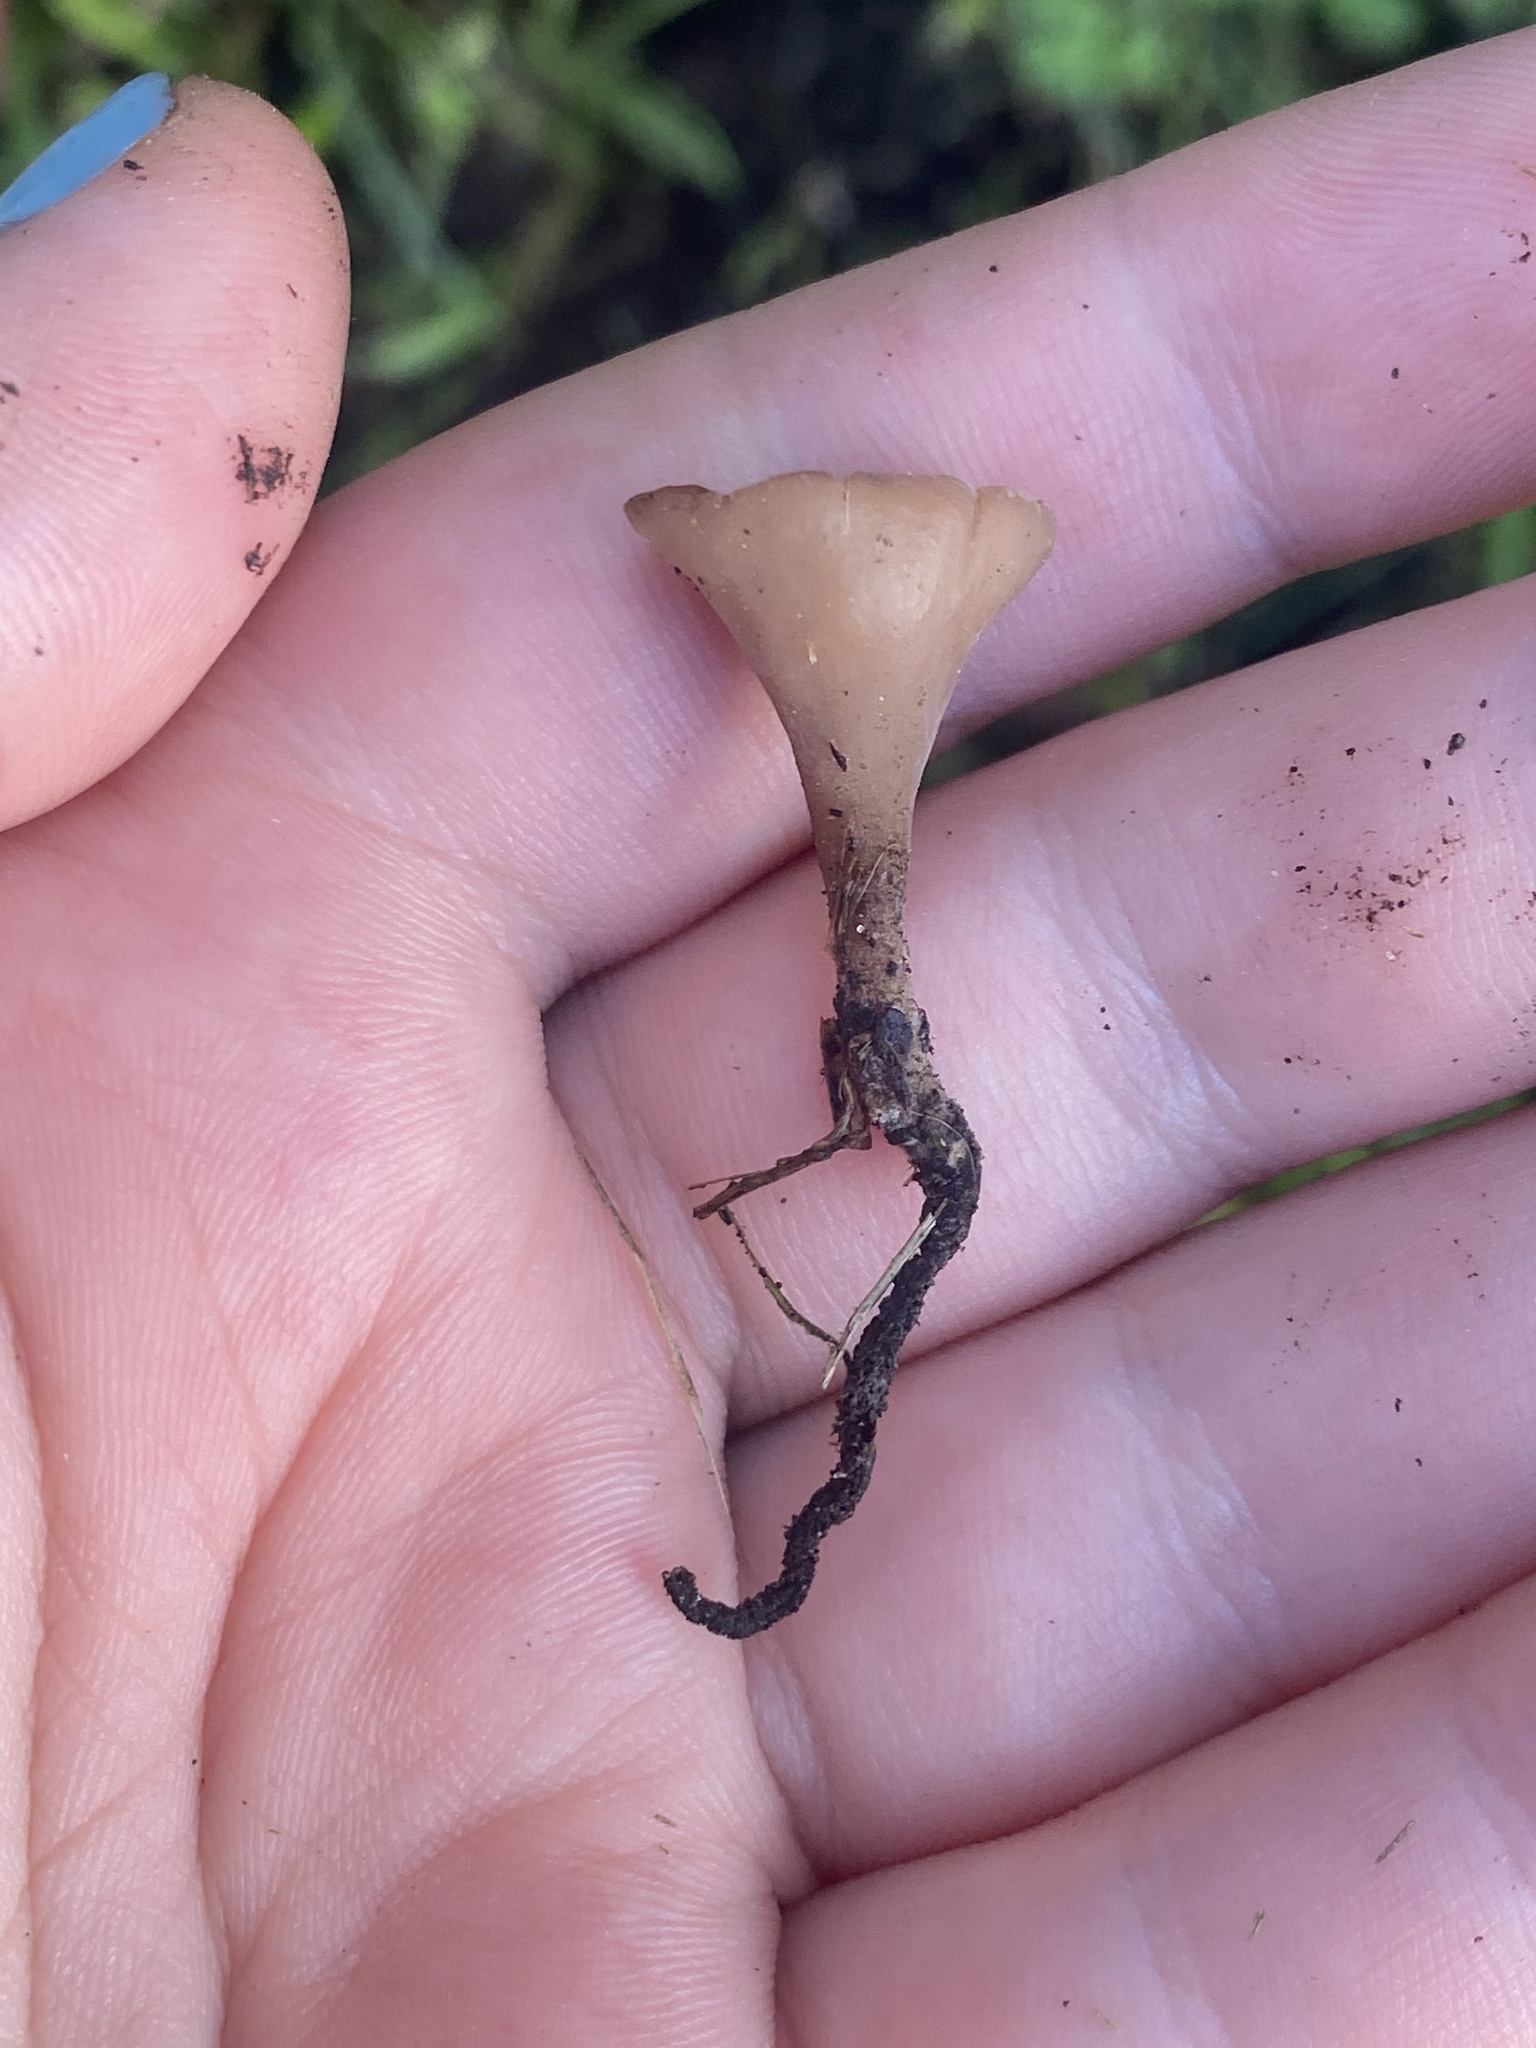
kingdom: Fungi
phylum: Ascomycota
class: Leotiomycetes
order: Helotiales
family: Sclerotiniaceae
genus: Ciborinia
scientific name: Ciborinia camelliae
